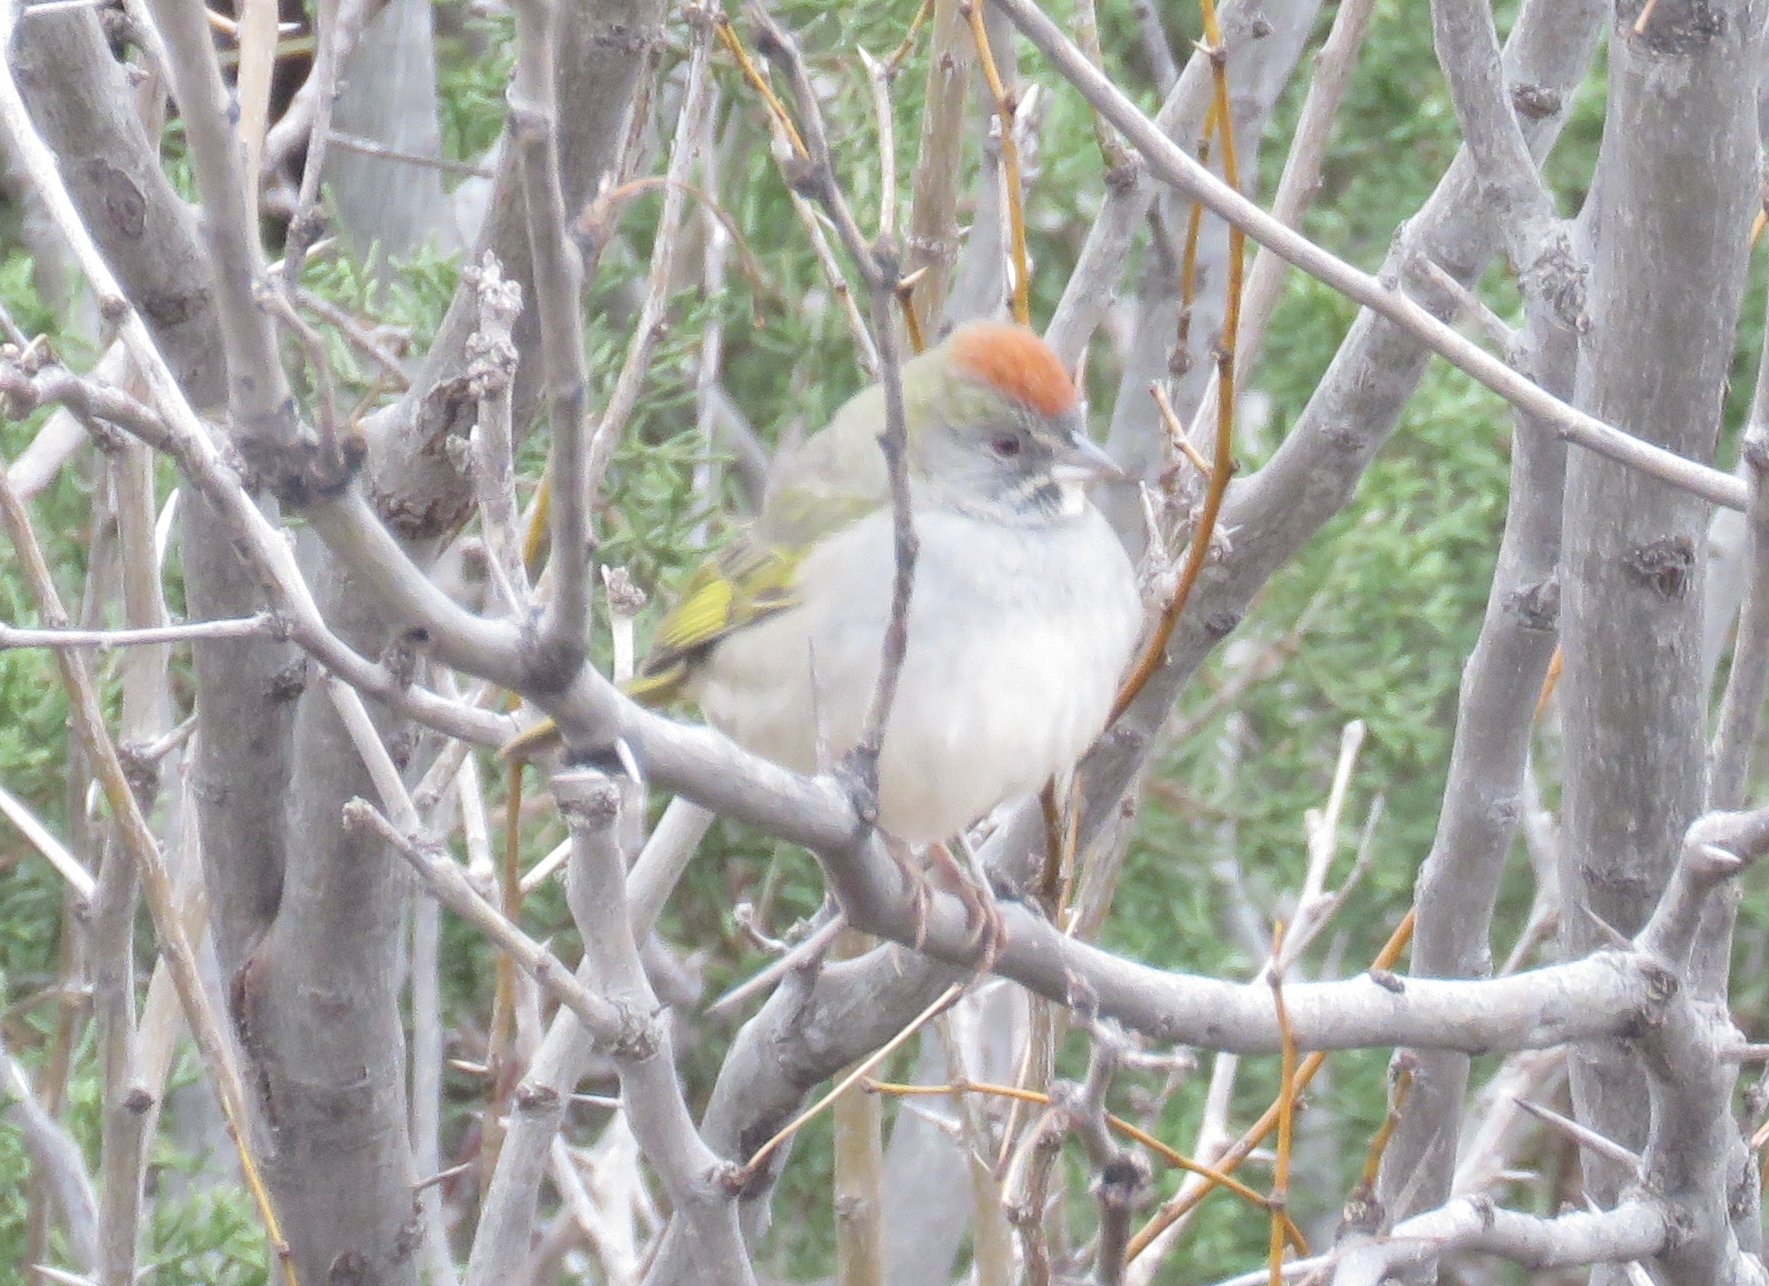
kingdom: Animalia
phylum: Chordata
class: Aves
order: Passeriformes
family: Passerellidae
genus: Pipilo
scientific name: Pipilo chlorurus
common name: Green-tailed towhee
